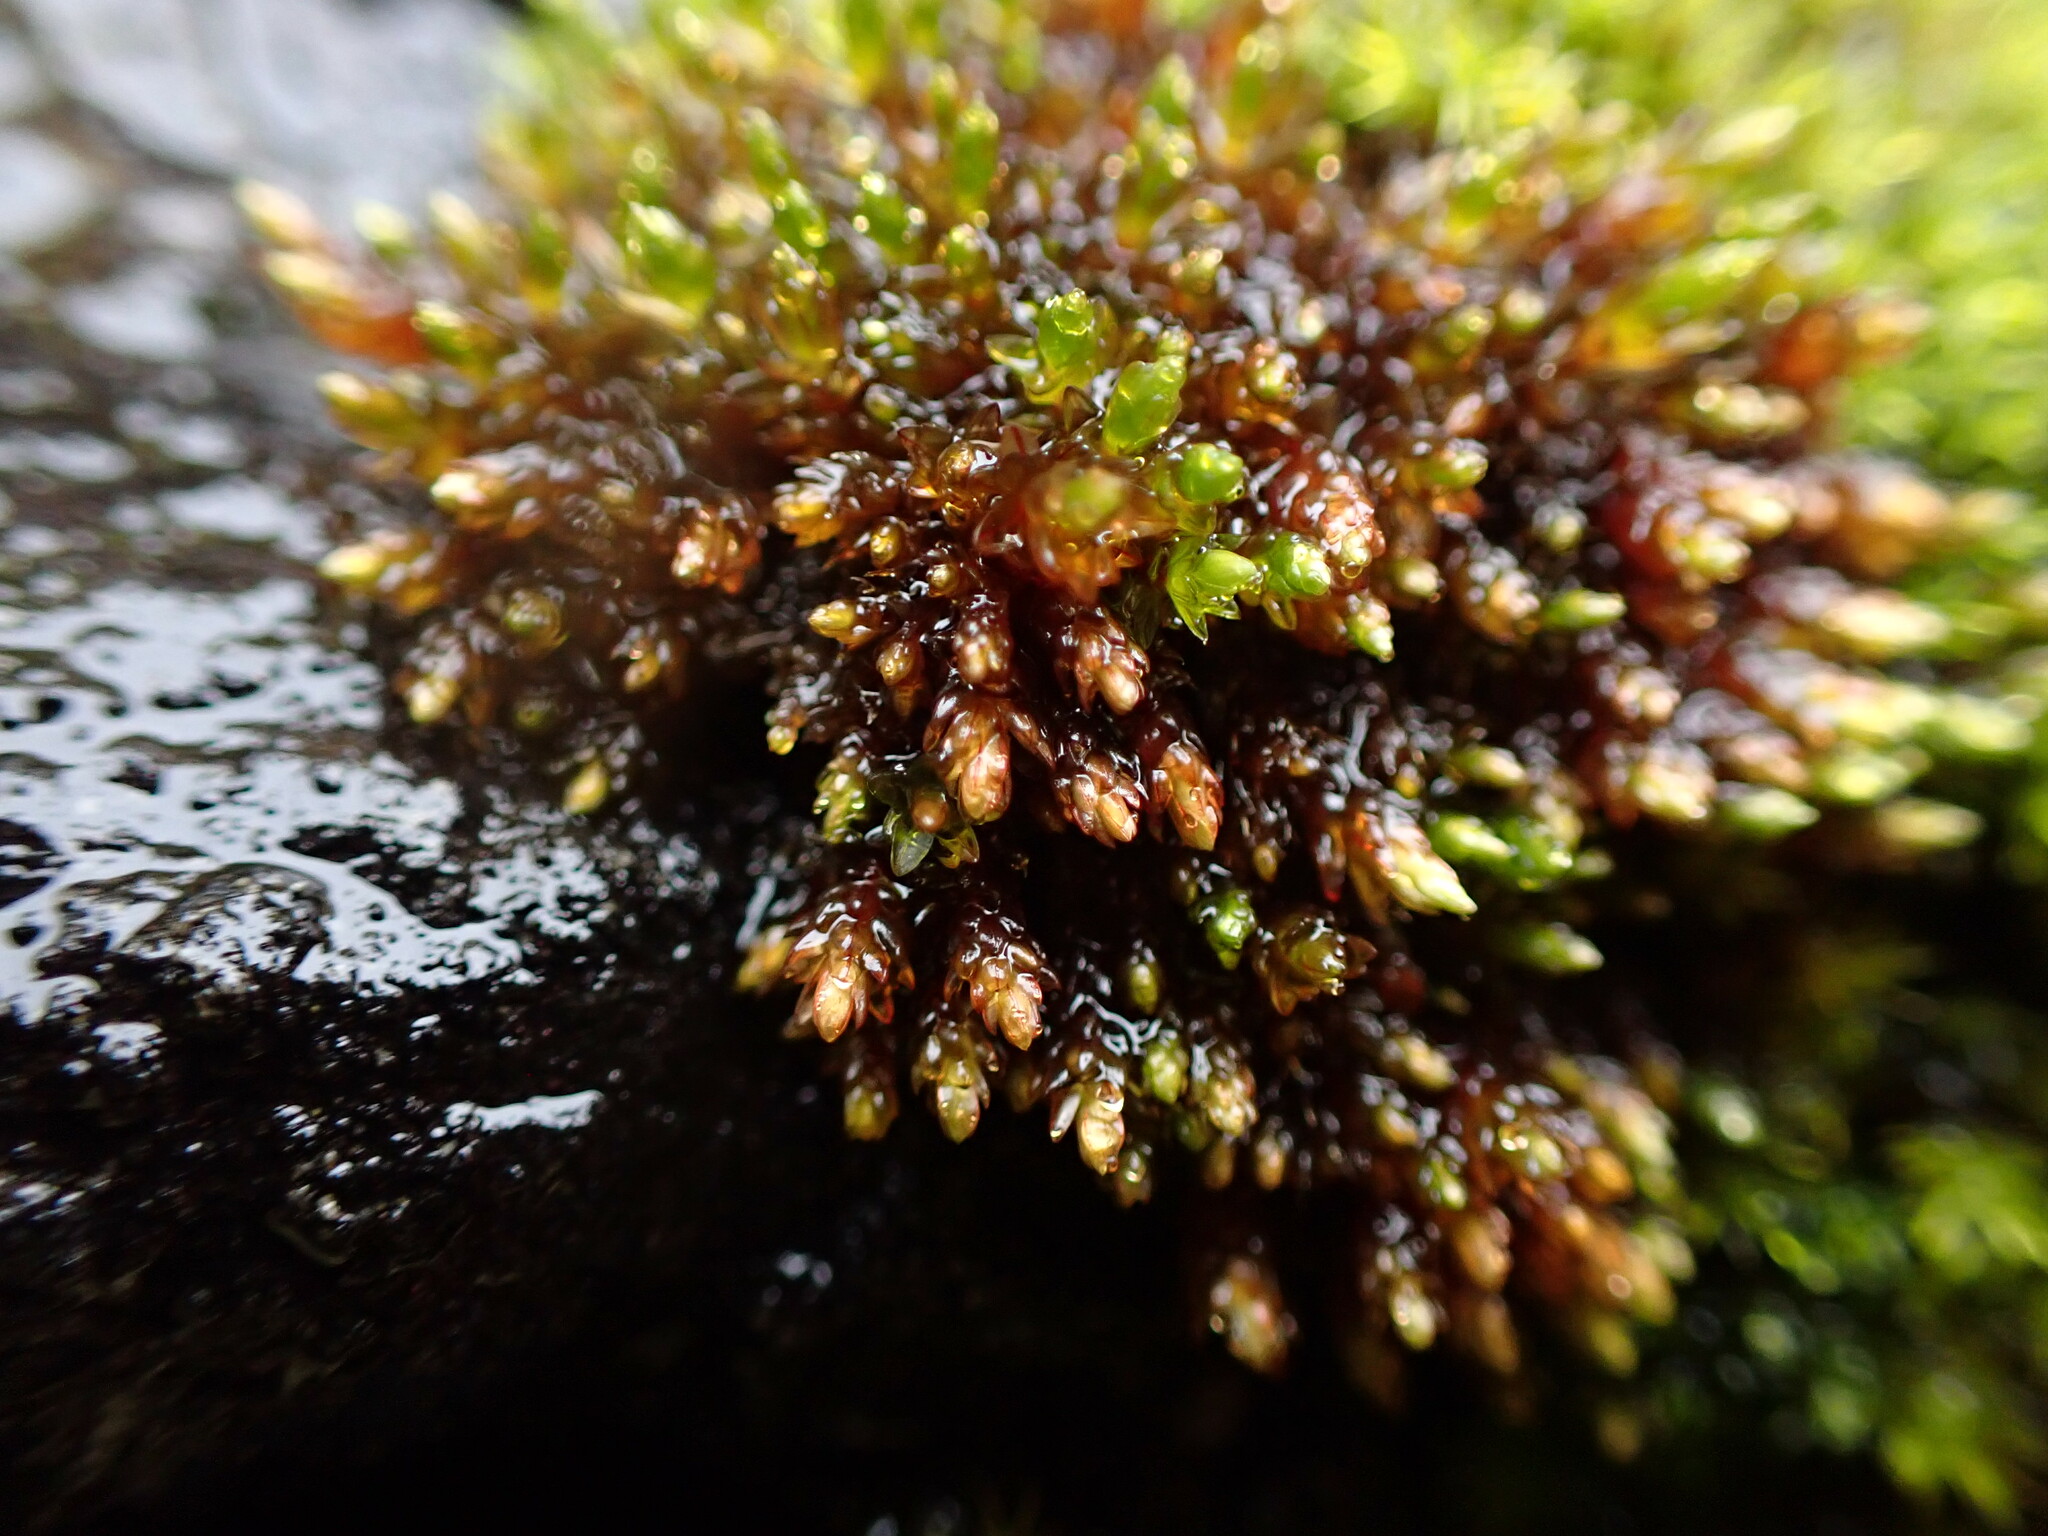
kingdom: Plantae
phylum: Bryophyta
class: Bryopsida
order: Bryales
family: Bryaceae
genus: Imbribryum
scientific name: Imbribryum miniatum
